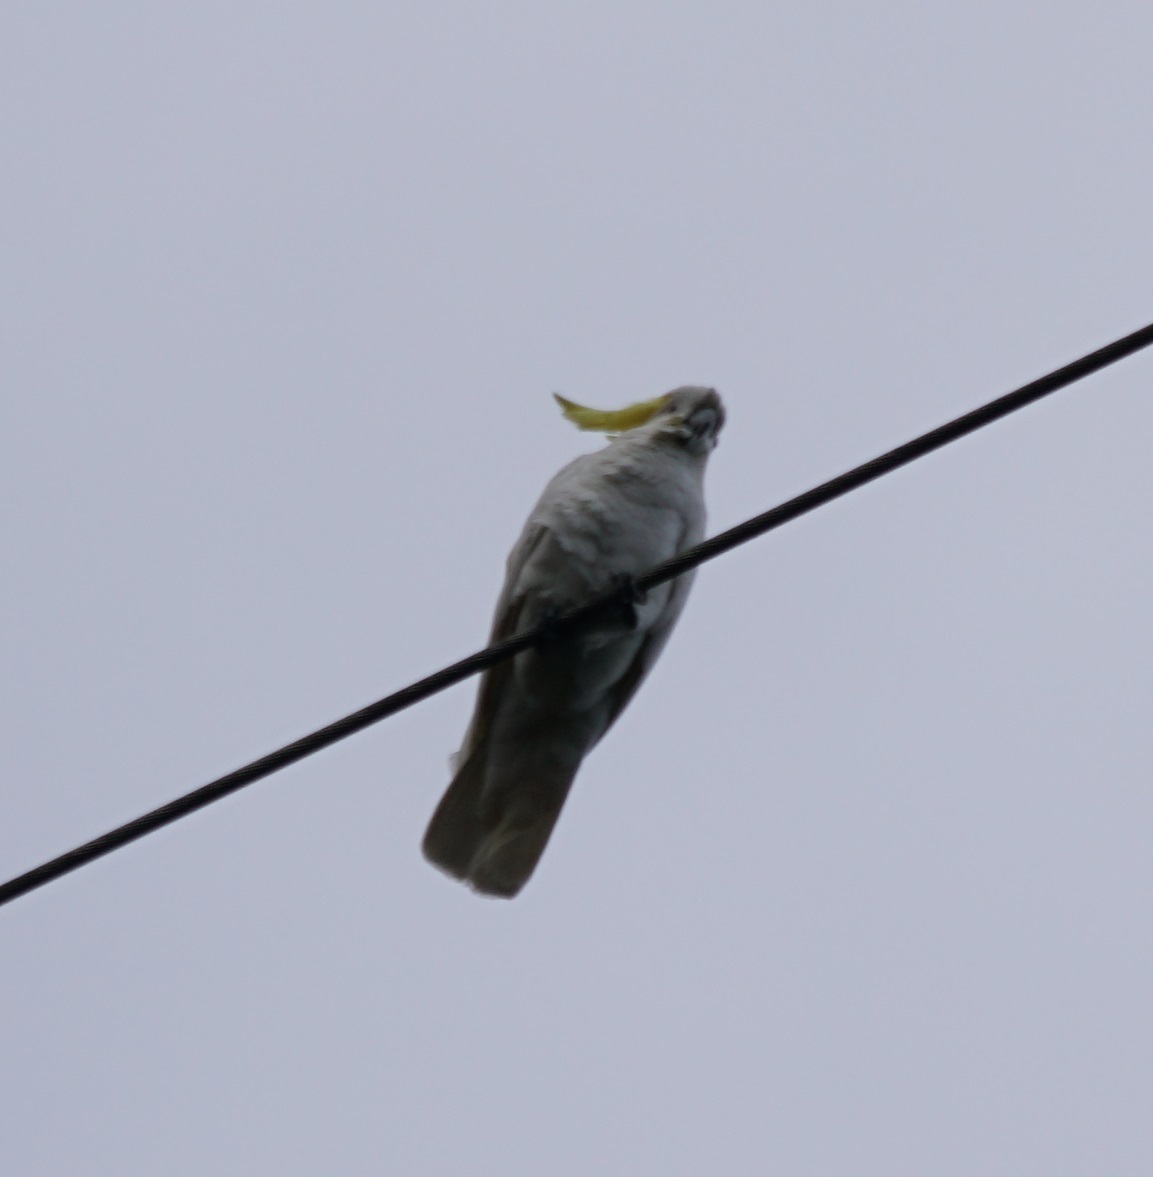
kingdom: Animalia
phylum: Chordata
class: Aves
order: Psittaciformes
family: Psittacidae
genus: Cacatua
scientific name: Cacatua galerita
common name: Sulphur-crested cockatoo
